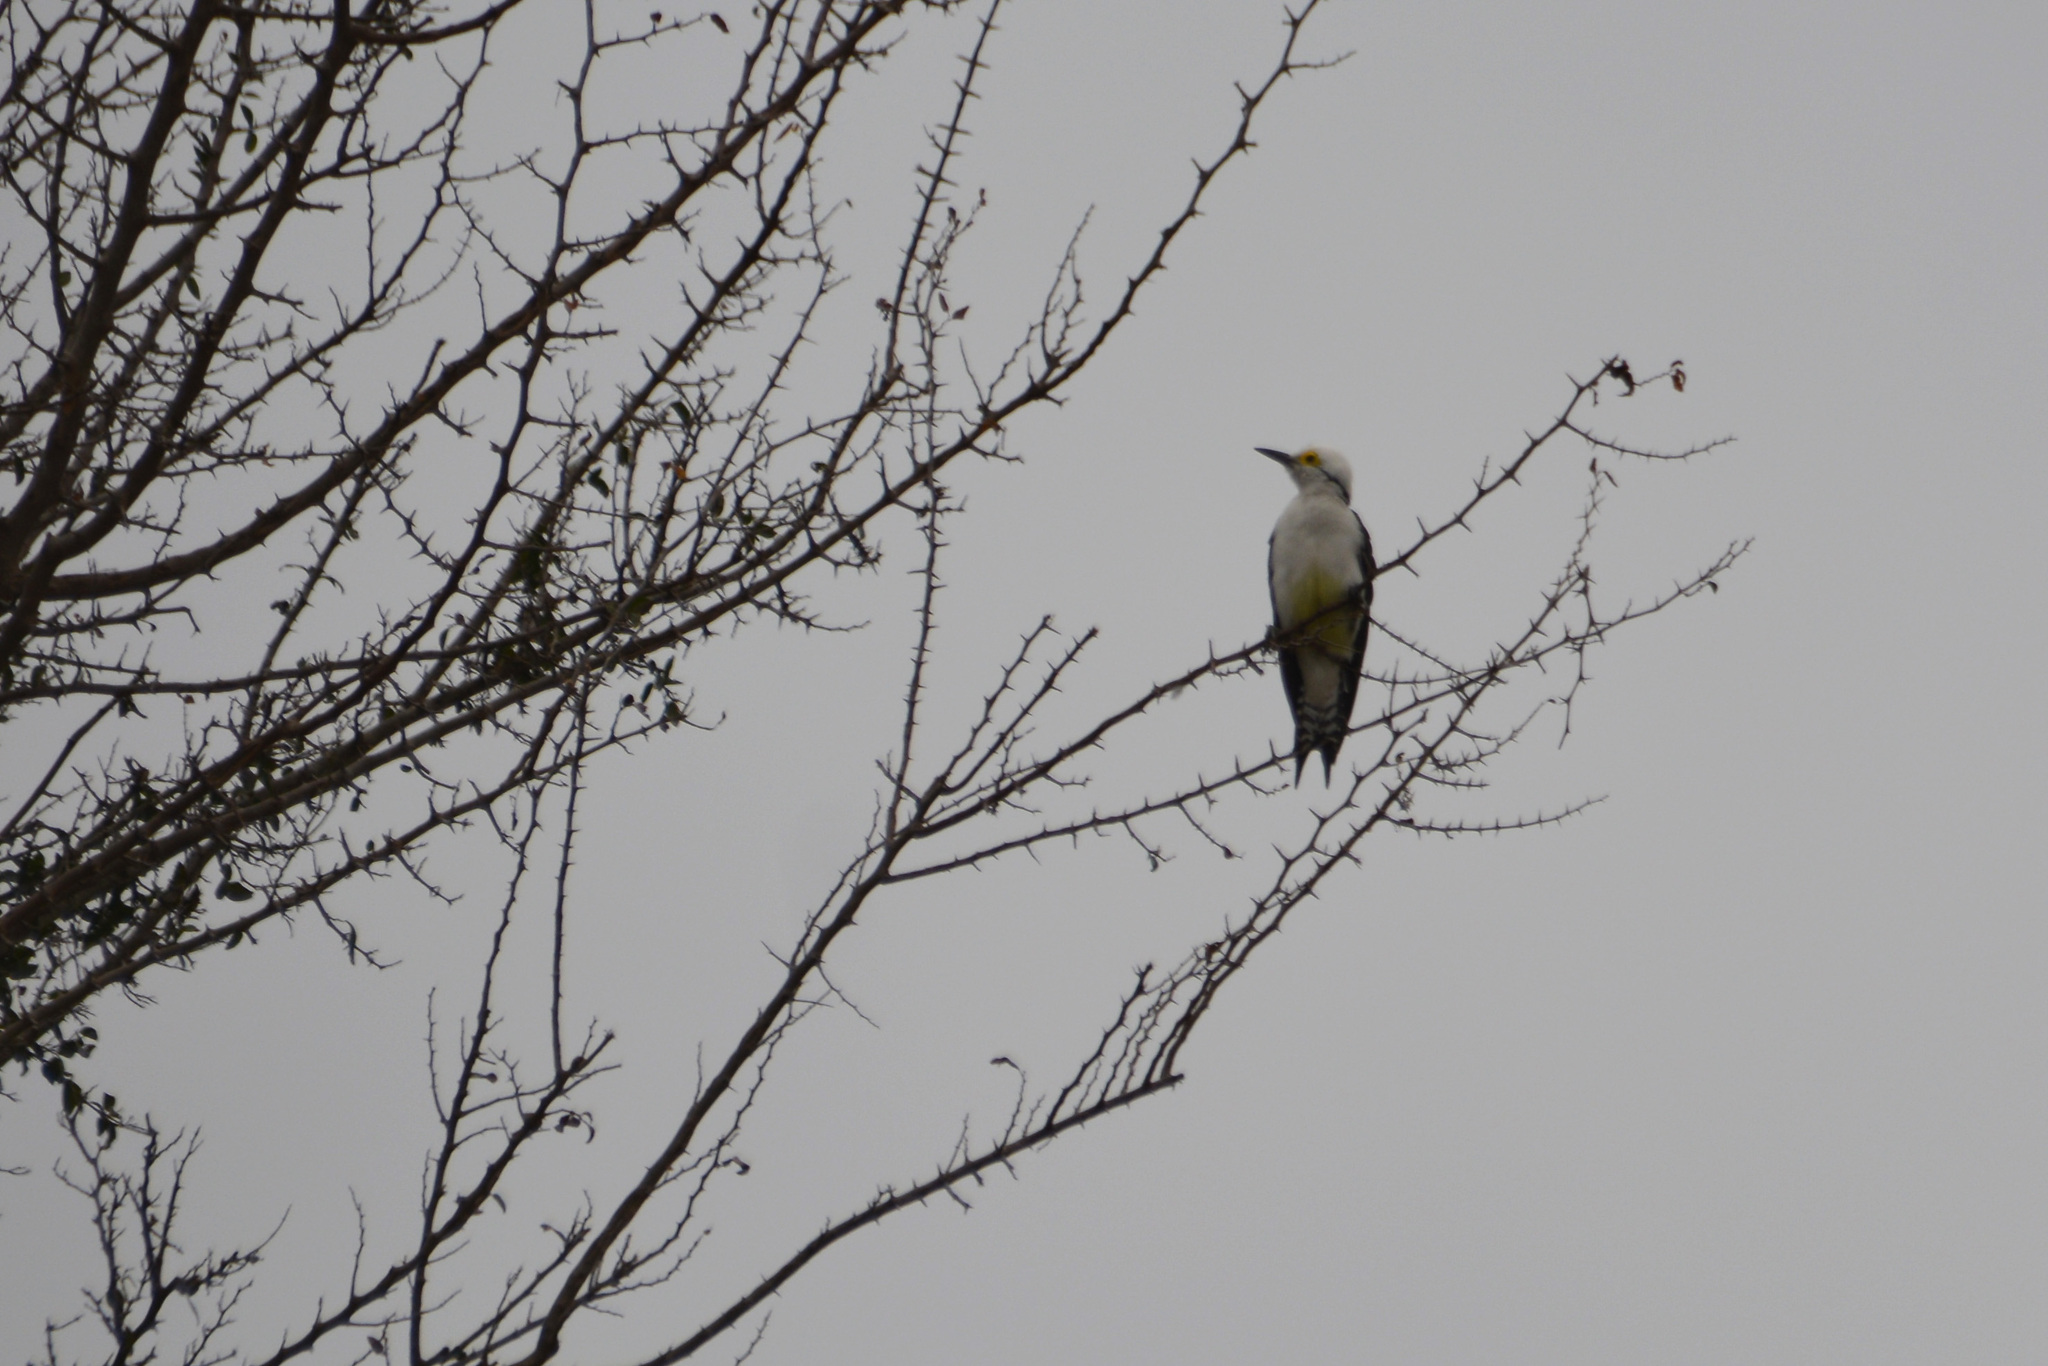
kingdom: Animalia
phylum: Chordata
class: Aves
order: Piciformes
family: Picidae
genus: Melanerpes
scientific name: Melanerpes candidus
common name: White woodpecker
